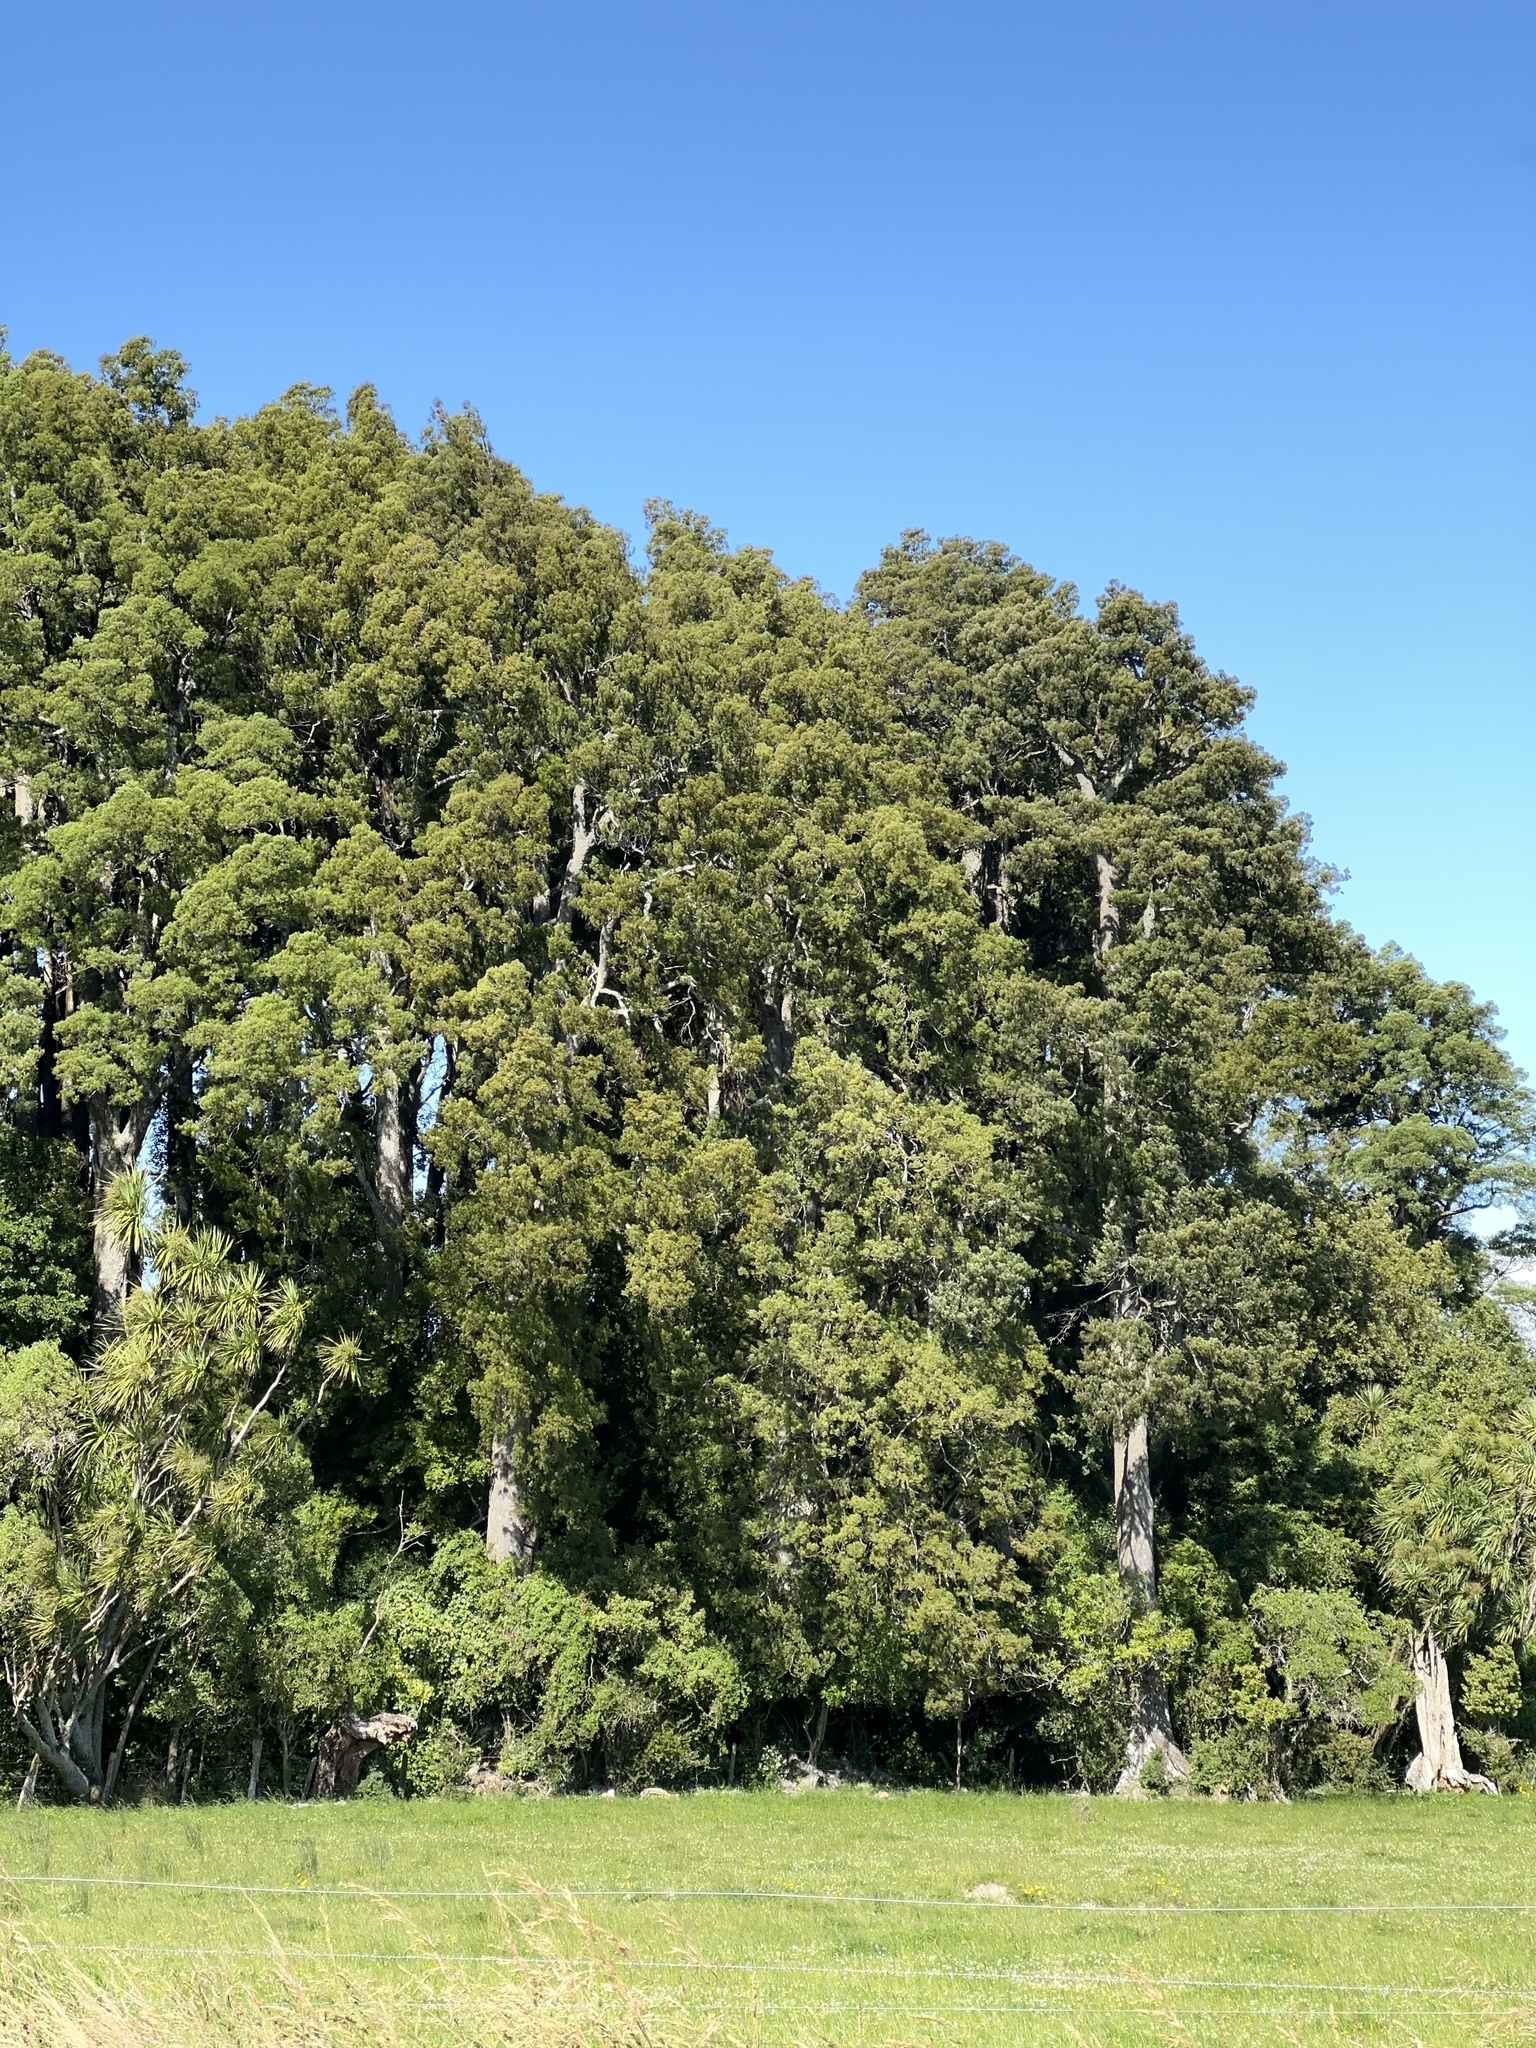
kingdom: Plantae
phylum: Tracheophyta
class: Pinopsida
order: Pinales
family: Podocarpaceae
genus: Dacrycarpus
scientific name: Dacrycarpus dacrydioides
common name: White pine
